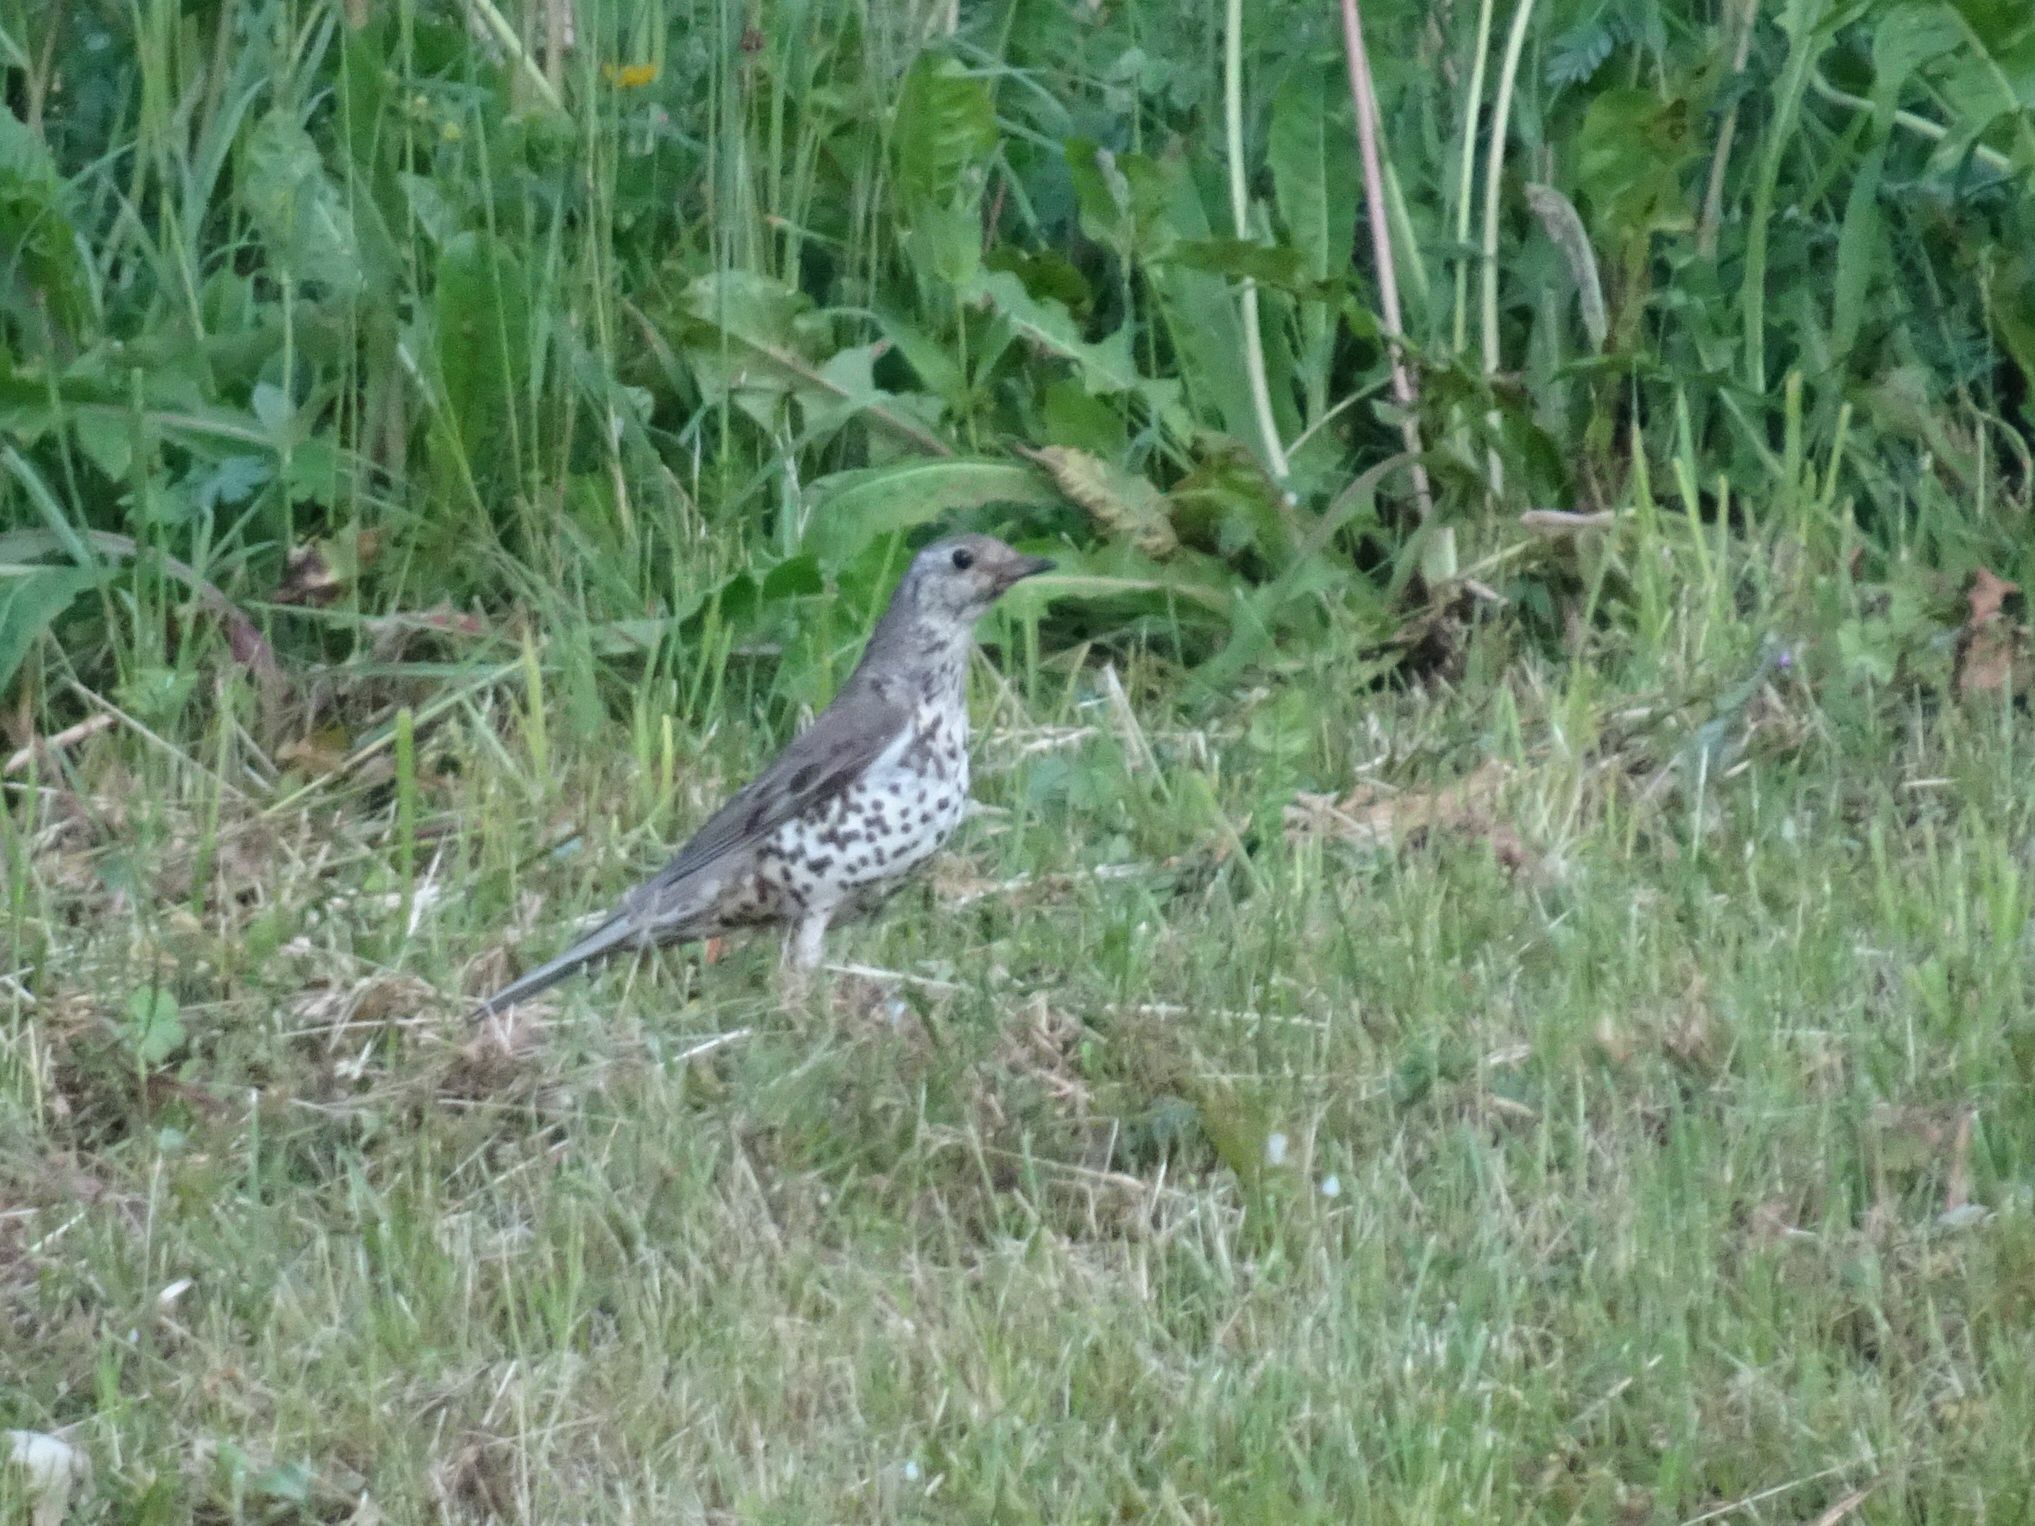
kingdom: Animalia
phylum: Chordata
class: Aves
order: Passeriformes
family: Turdidae
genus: Turdus
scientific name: Turdus viscivorus
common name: Mistle thrush
